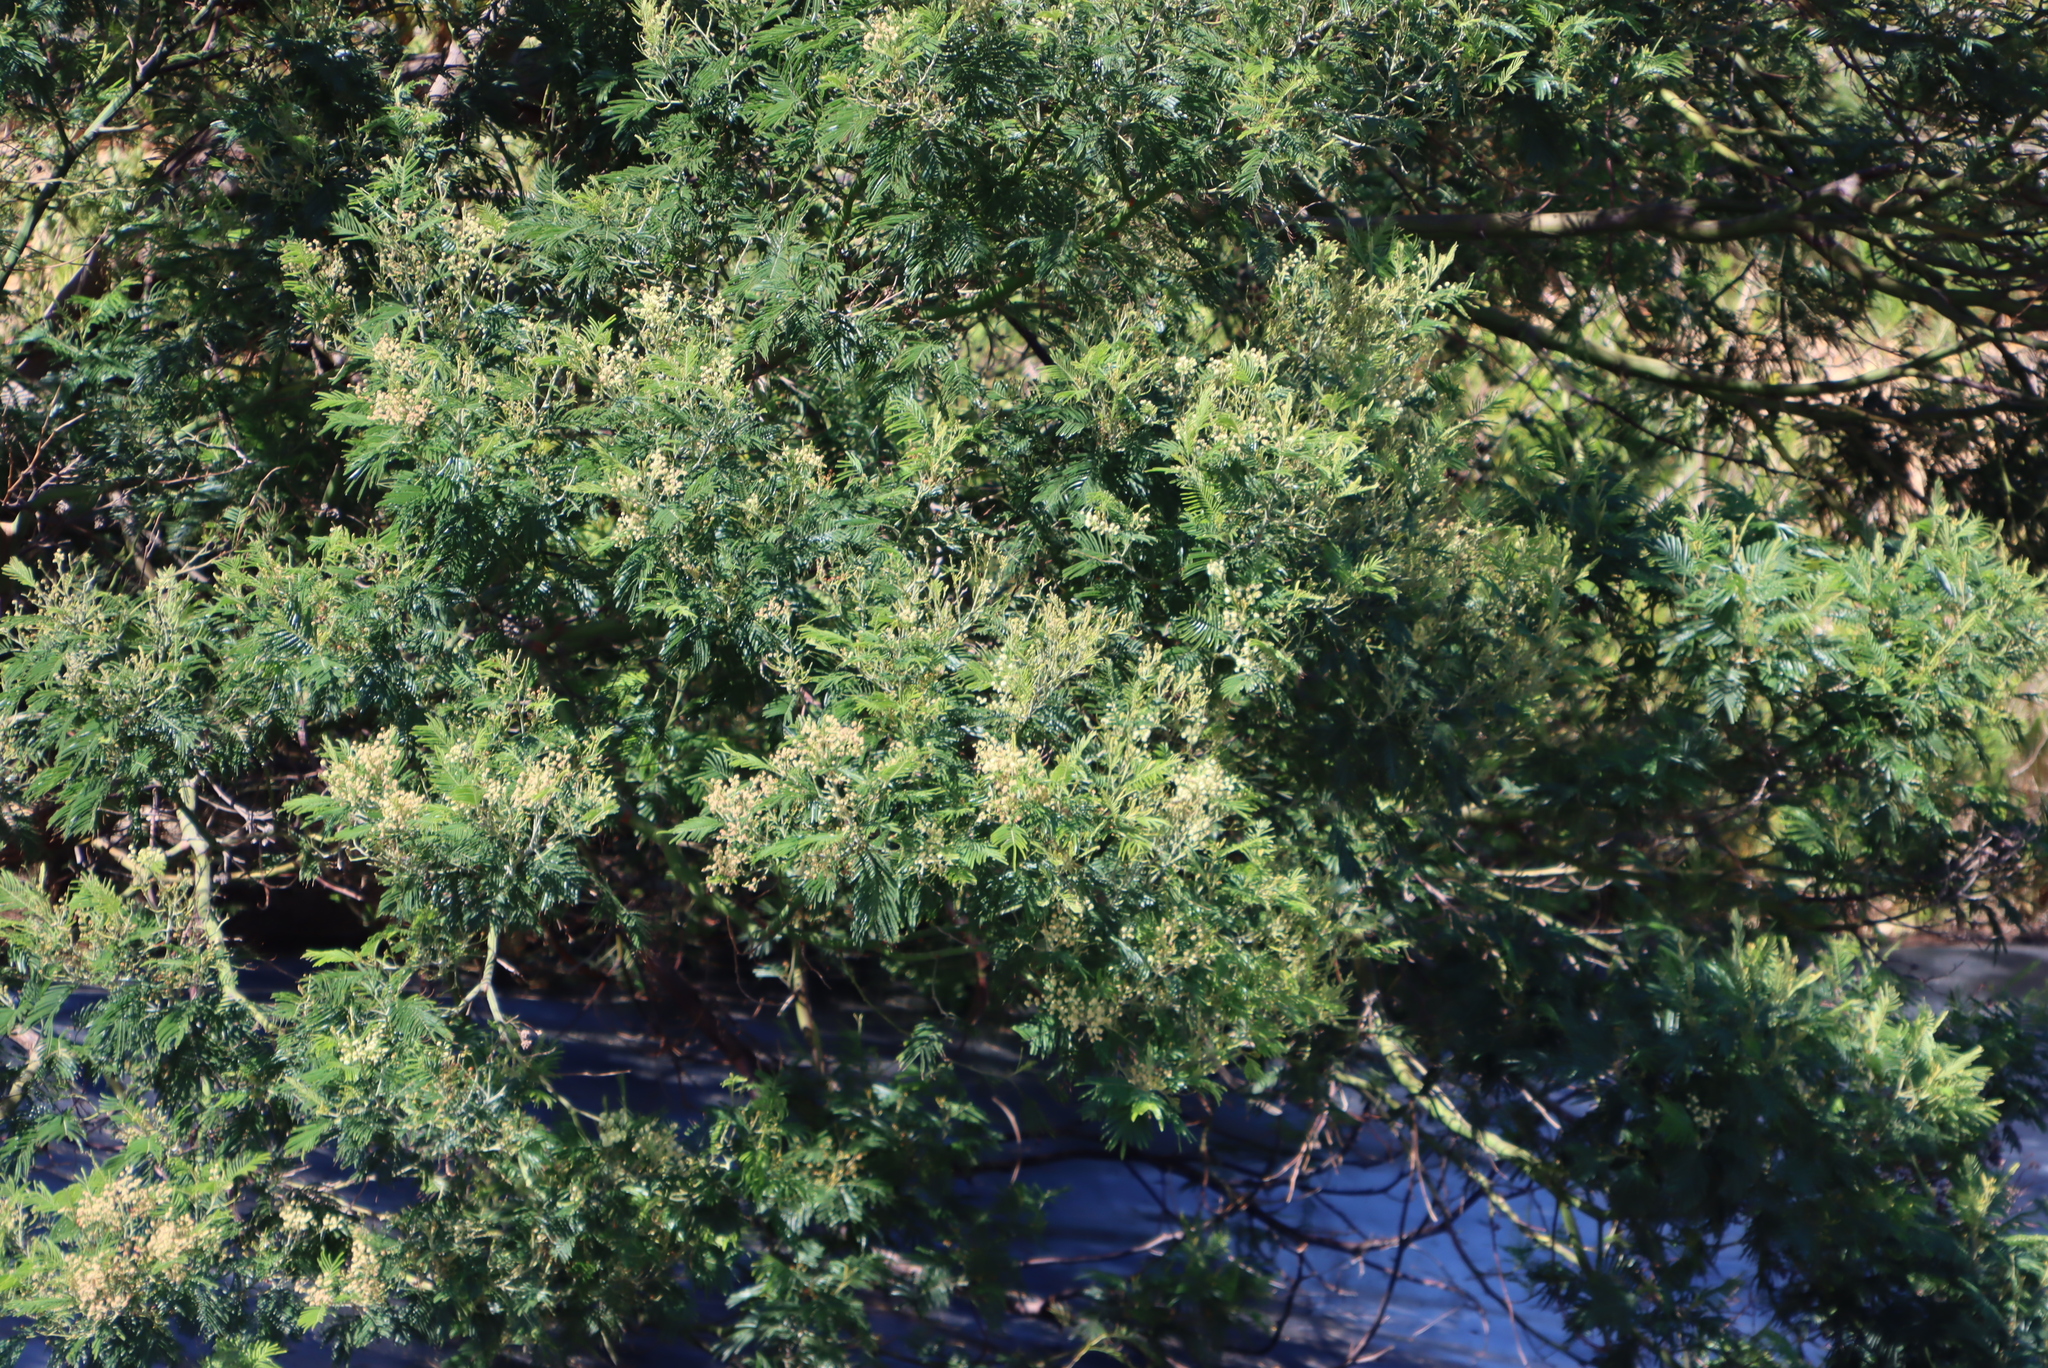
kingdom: Plantae
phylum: Tracheophyta
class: Magnoliopsida
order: Fabales
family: Fabaceae
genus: Acacia
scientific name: Acacia mearnsii
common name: Black wattle
